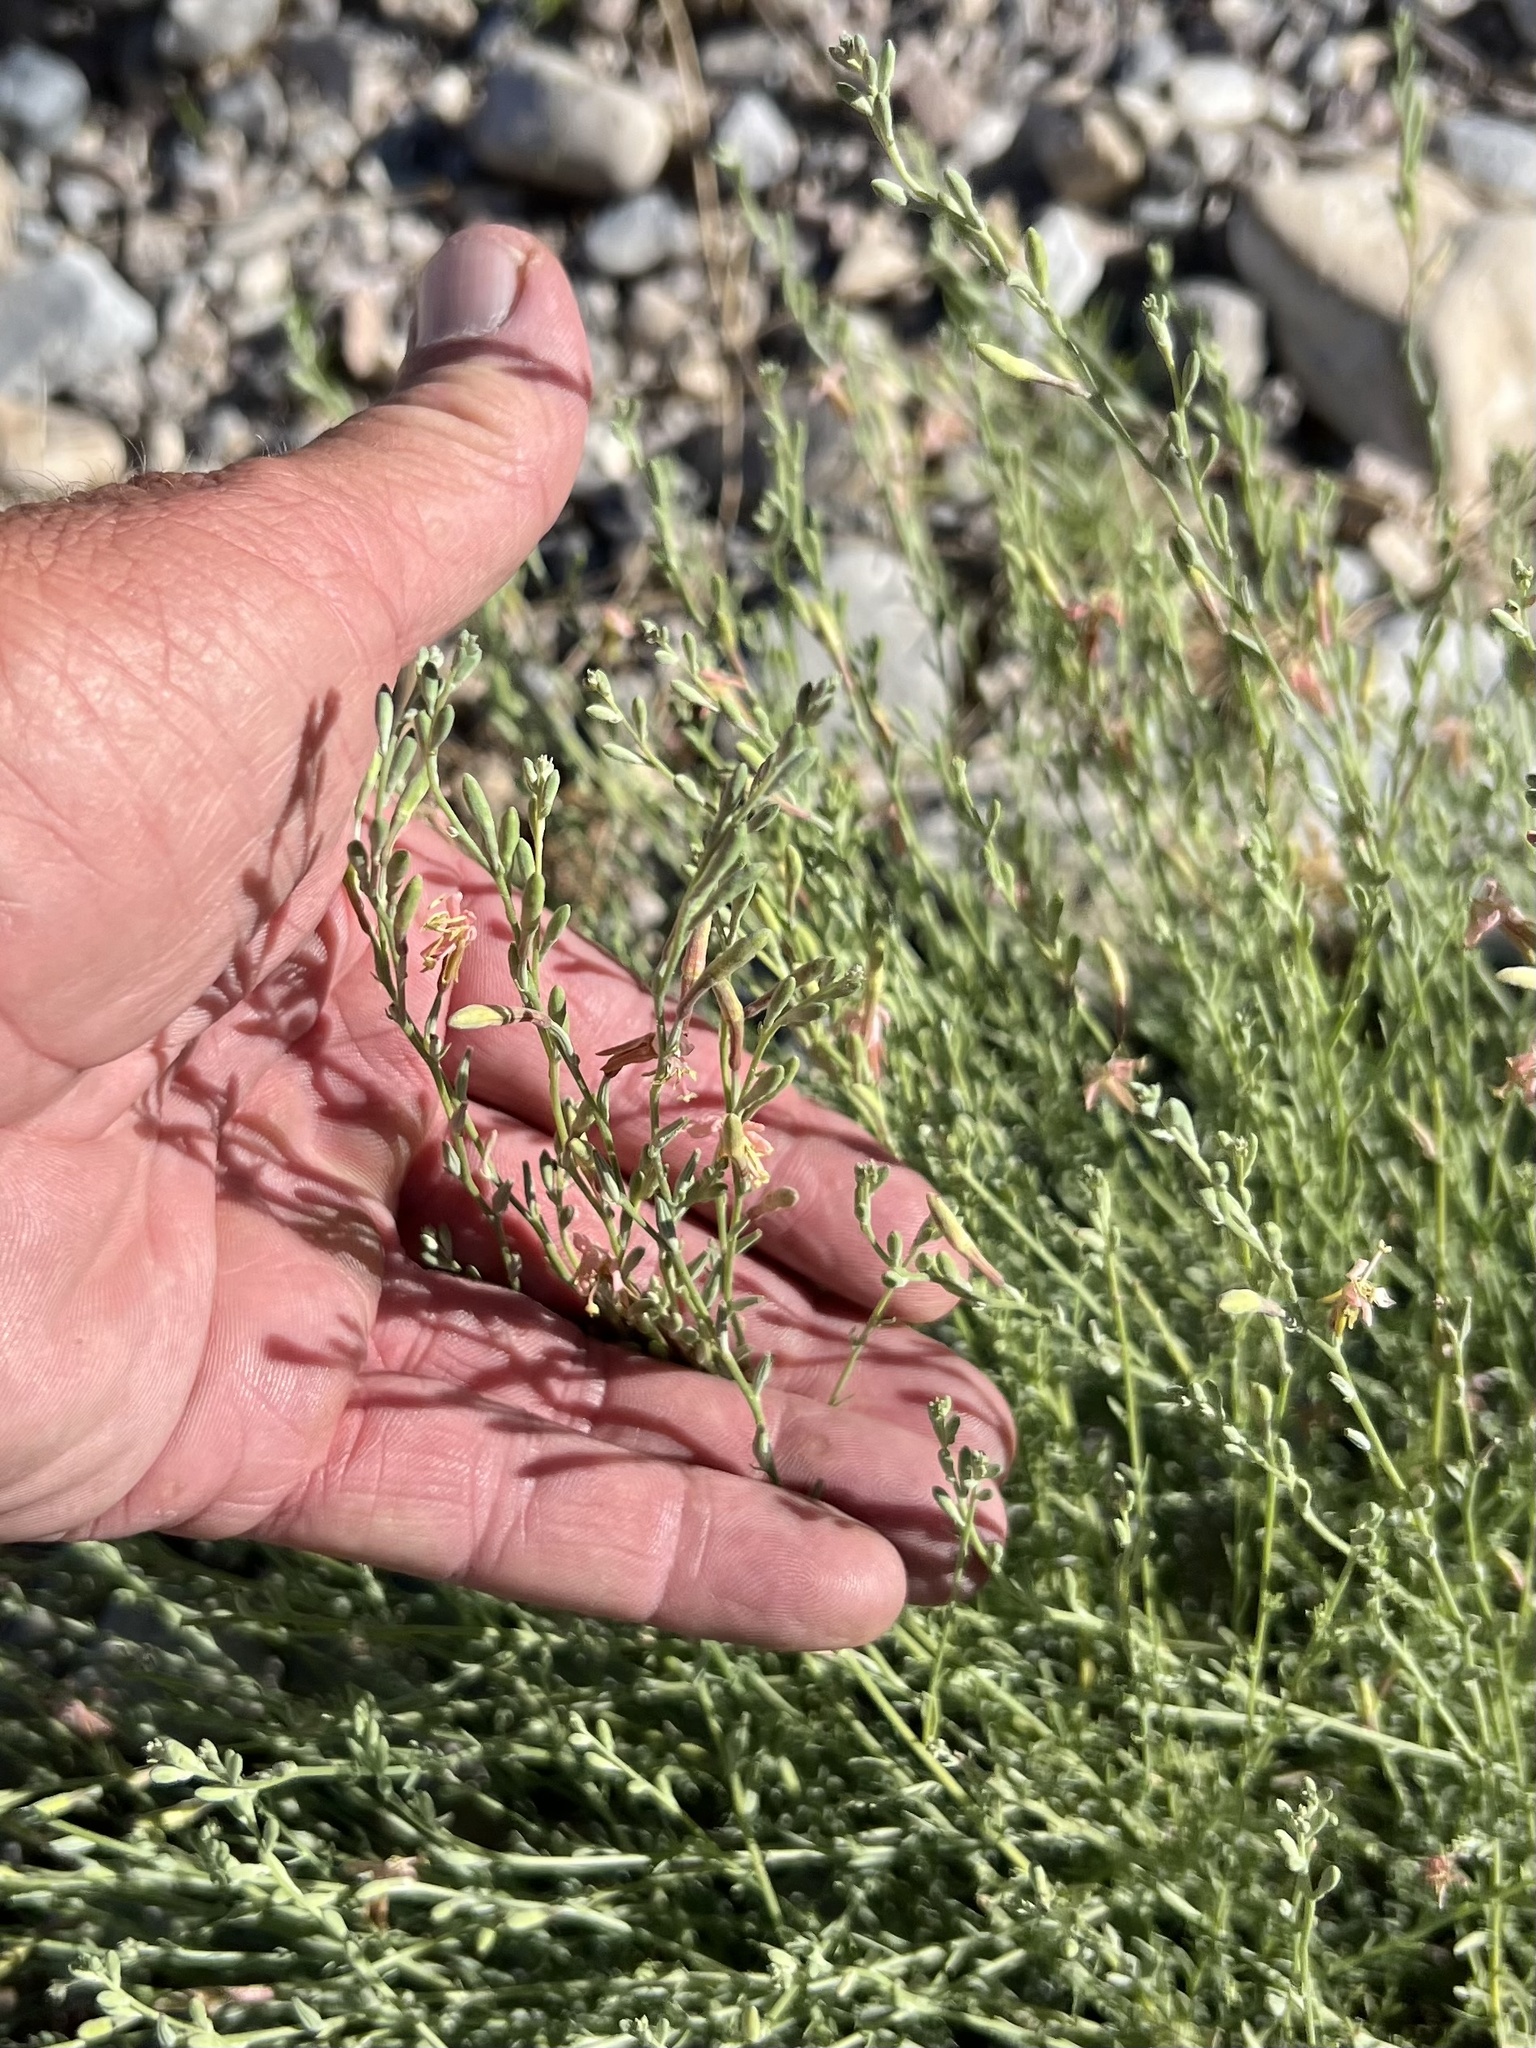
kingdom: Plantae
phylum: Tracheophyta
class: Magnoliopsida
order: Myrtales
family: Onagraceae
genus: Oenothera
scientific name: Oenothera suffrutescens
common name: Scarlet beeblossom
